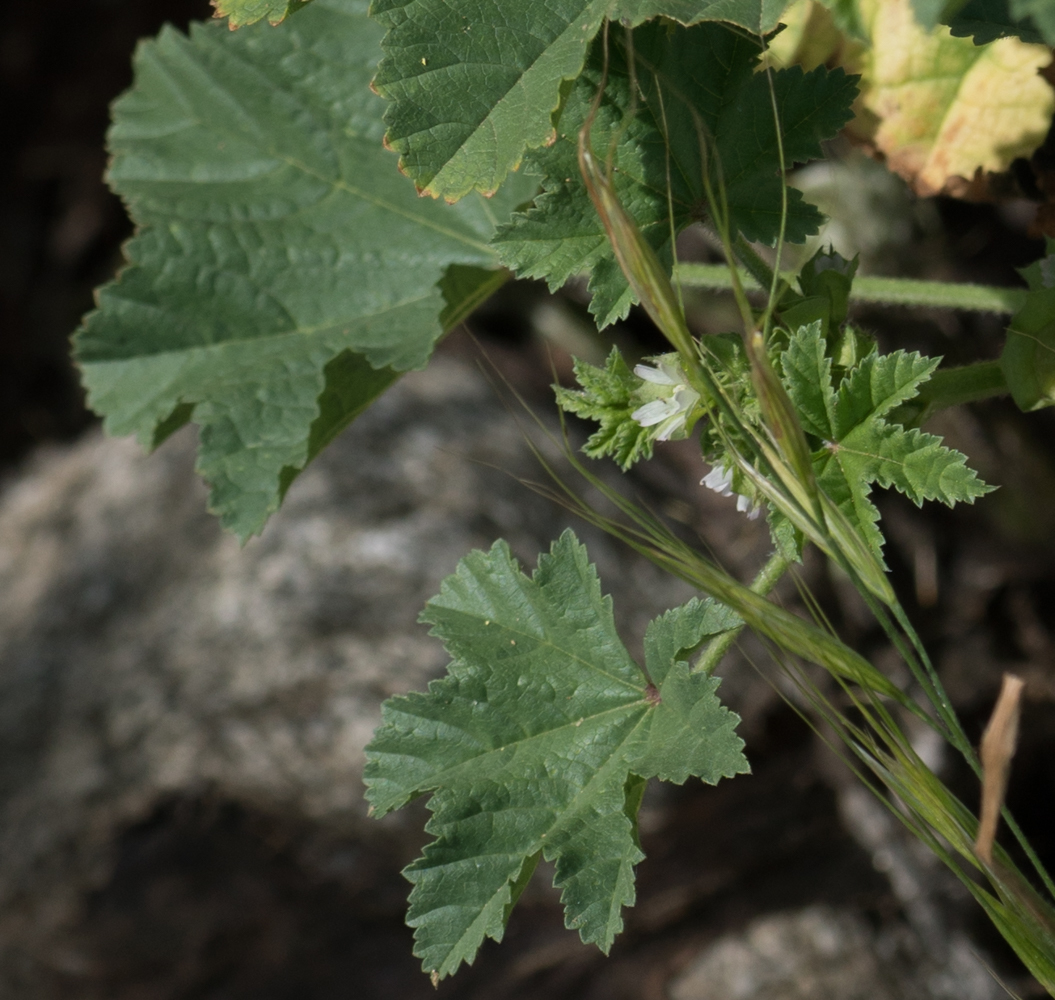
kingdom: Plantae
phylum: Tracheophyta
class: Magnoliopsida
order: Malvales
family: Malvaceae
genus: Malva
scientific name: Malva parviflora
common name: Least mallow
